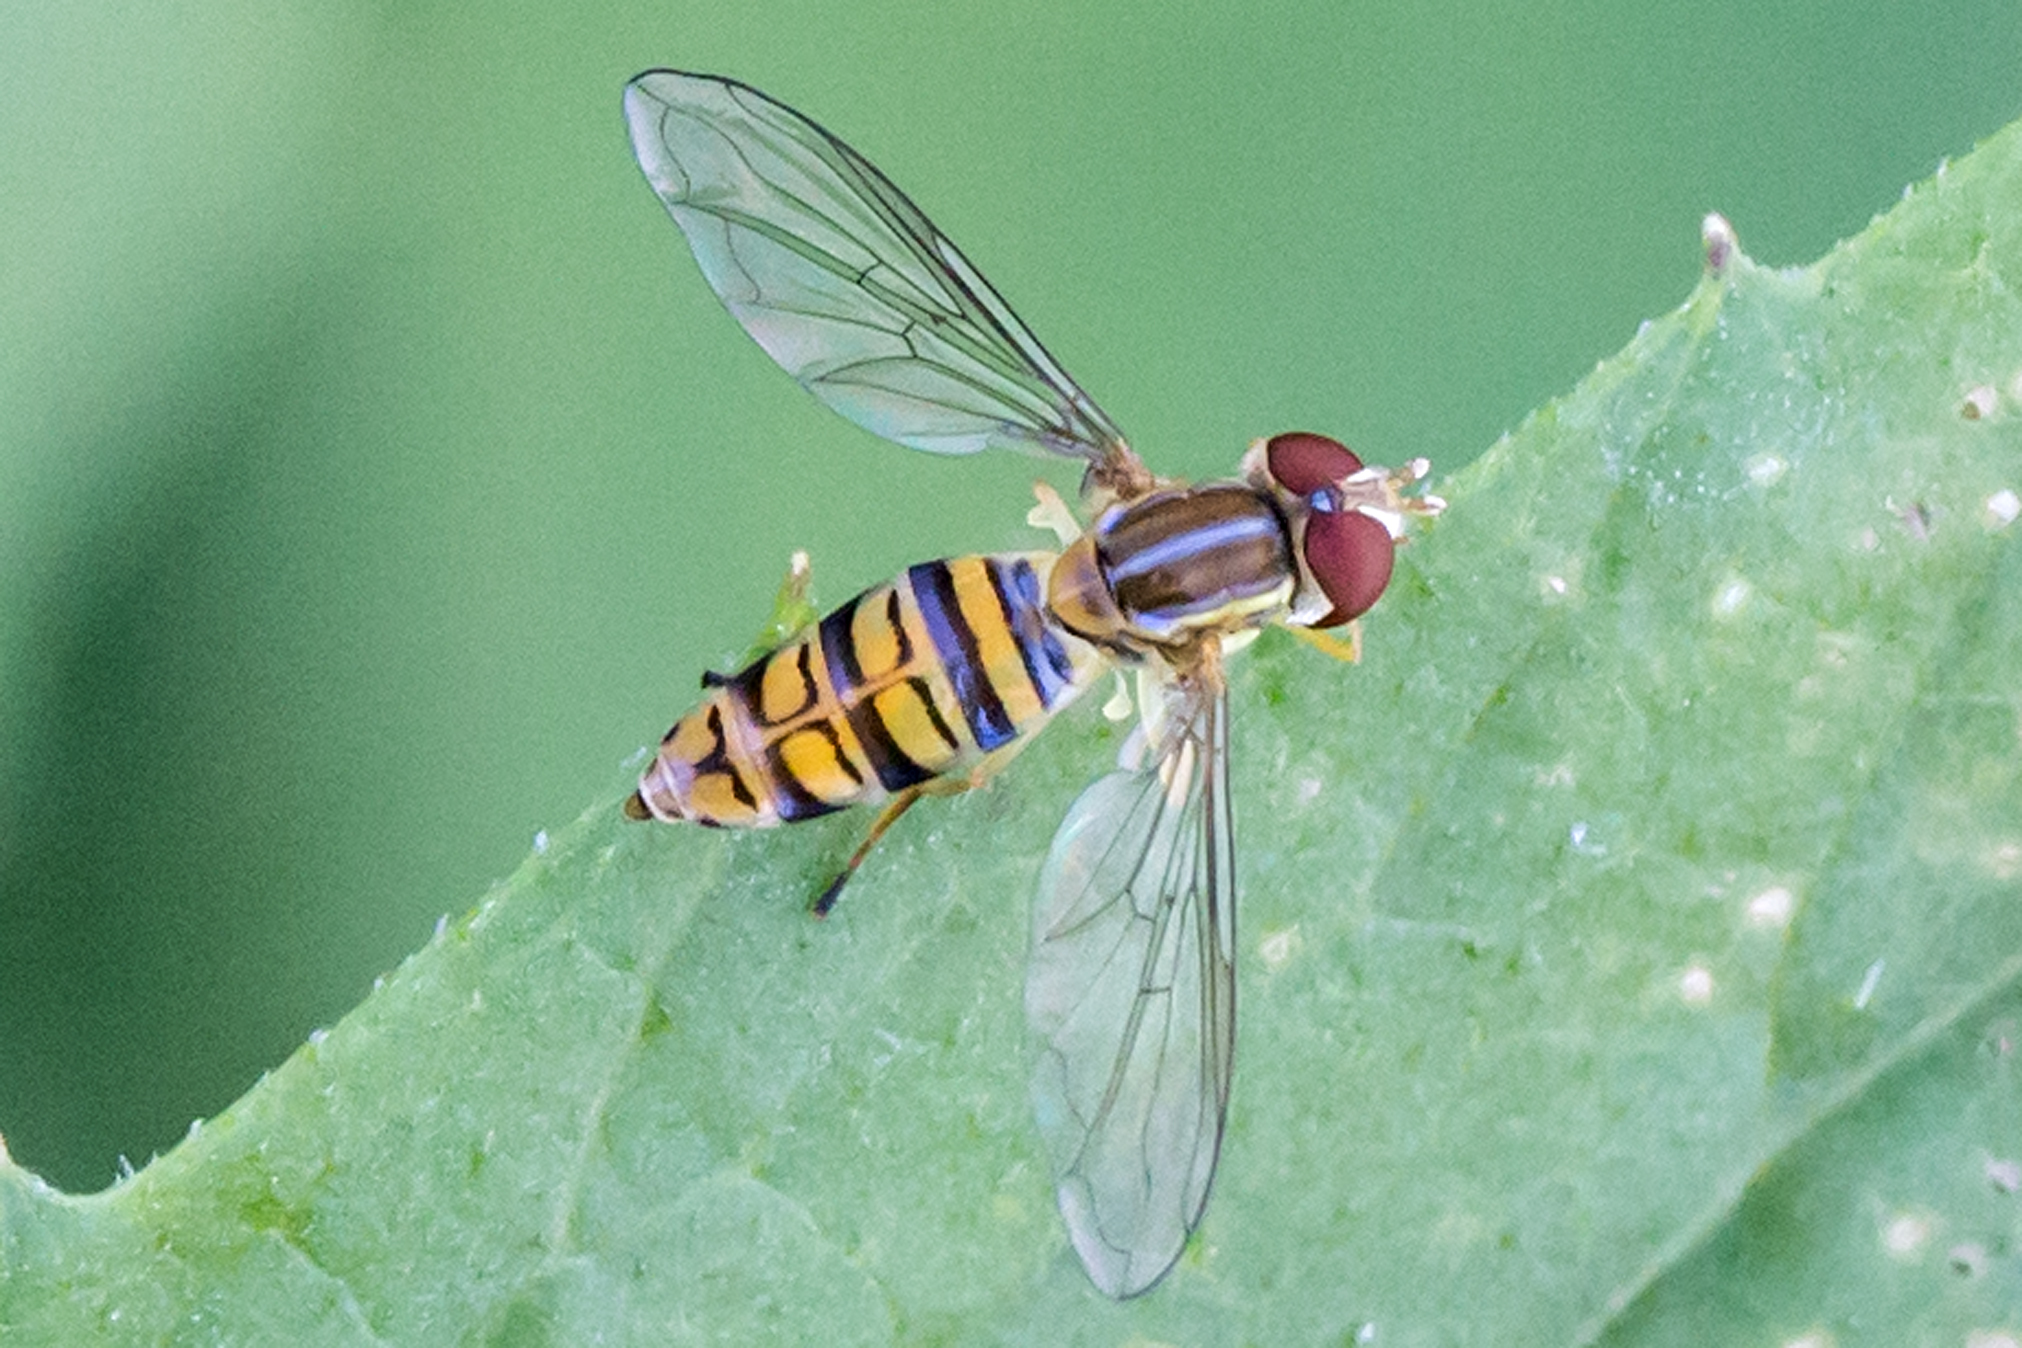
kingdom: Animalia
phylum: Arthropoda
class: Insecta
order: Diptera
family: Syrphidae
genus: Toxomerus
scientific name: Toxomerus politus
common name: Maize calligrapher
